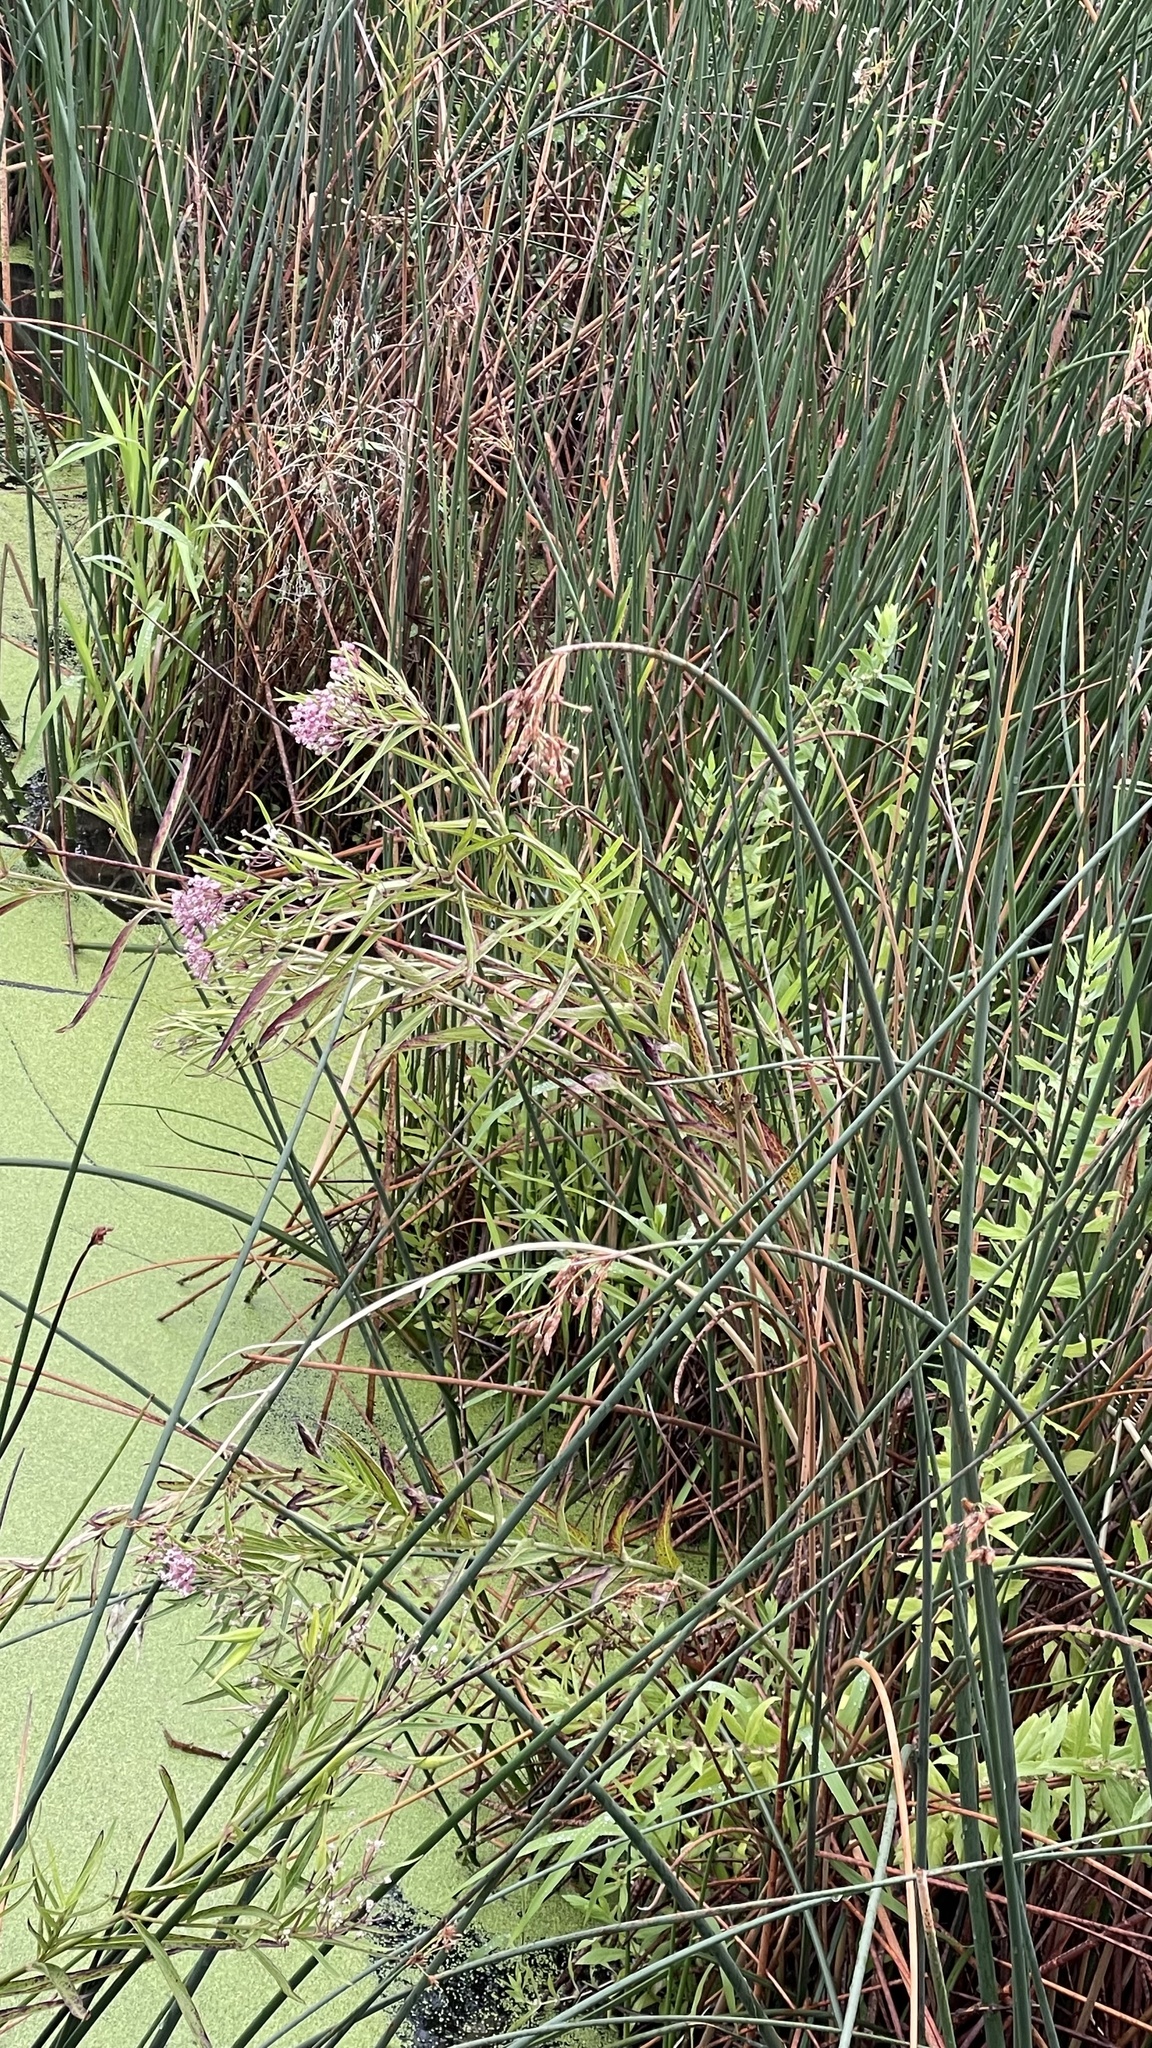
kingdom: Plantae
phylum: Tracheophyta
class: Magnoliopsida
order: Gentianales
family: Apocynaceae
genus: Asclepias
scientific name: Asclepias incarnata
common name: Swamp milkweed
